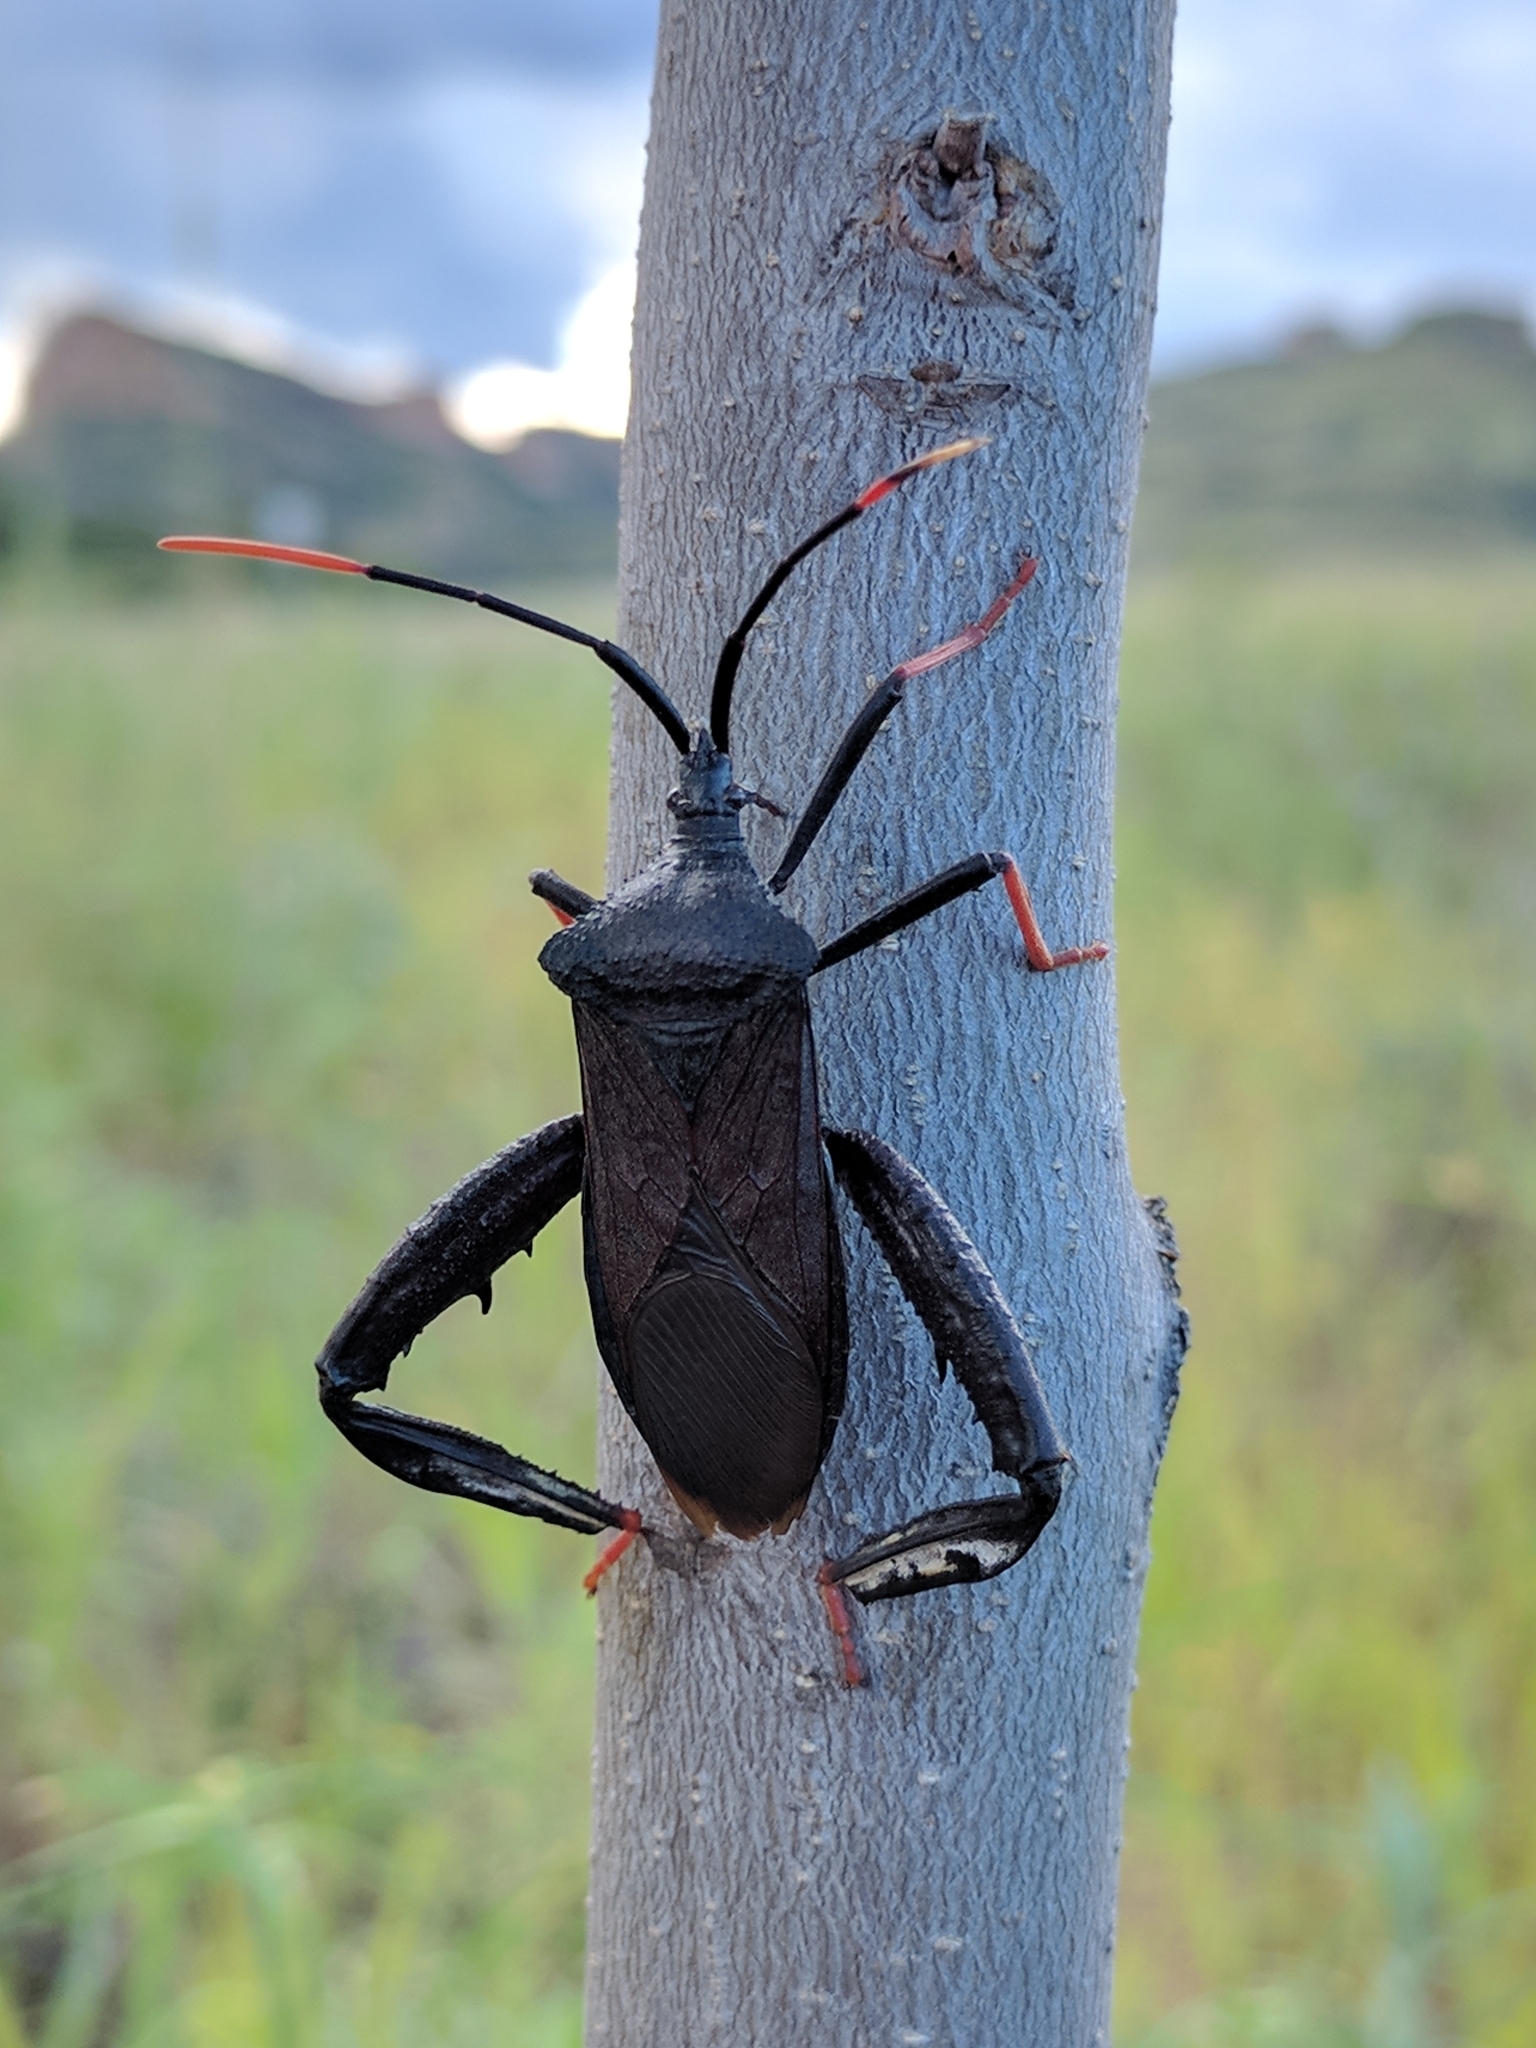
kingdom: Animalia
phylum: Arthropoda
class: Insecta
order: Hemiptera
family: Coreidae
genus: Acanthocephala
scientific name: Acanthocephala thomasi
